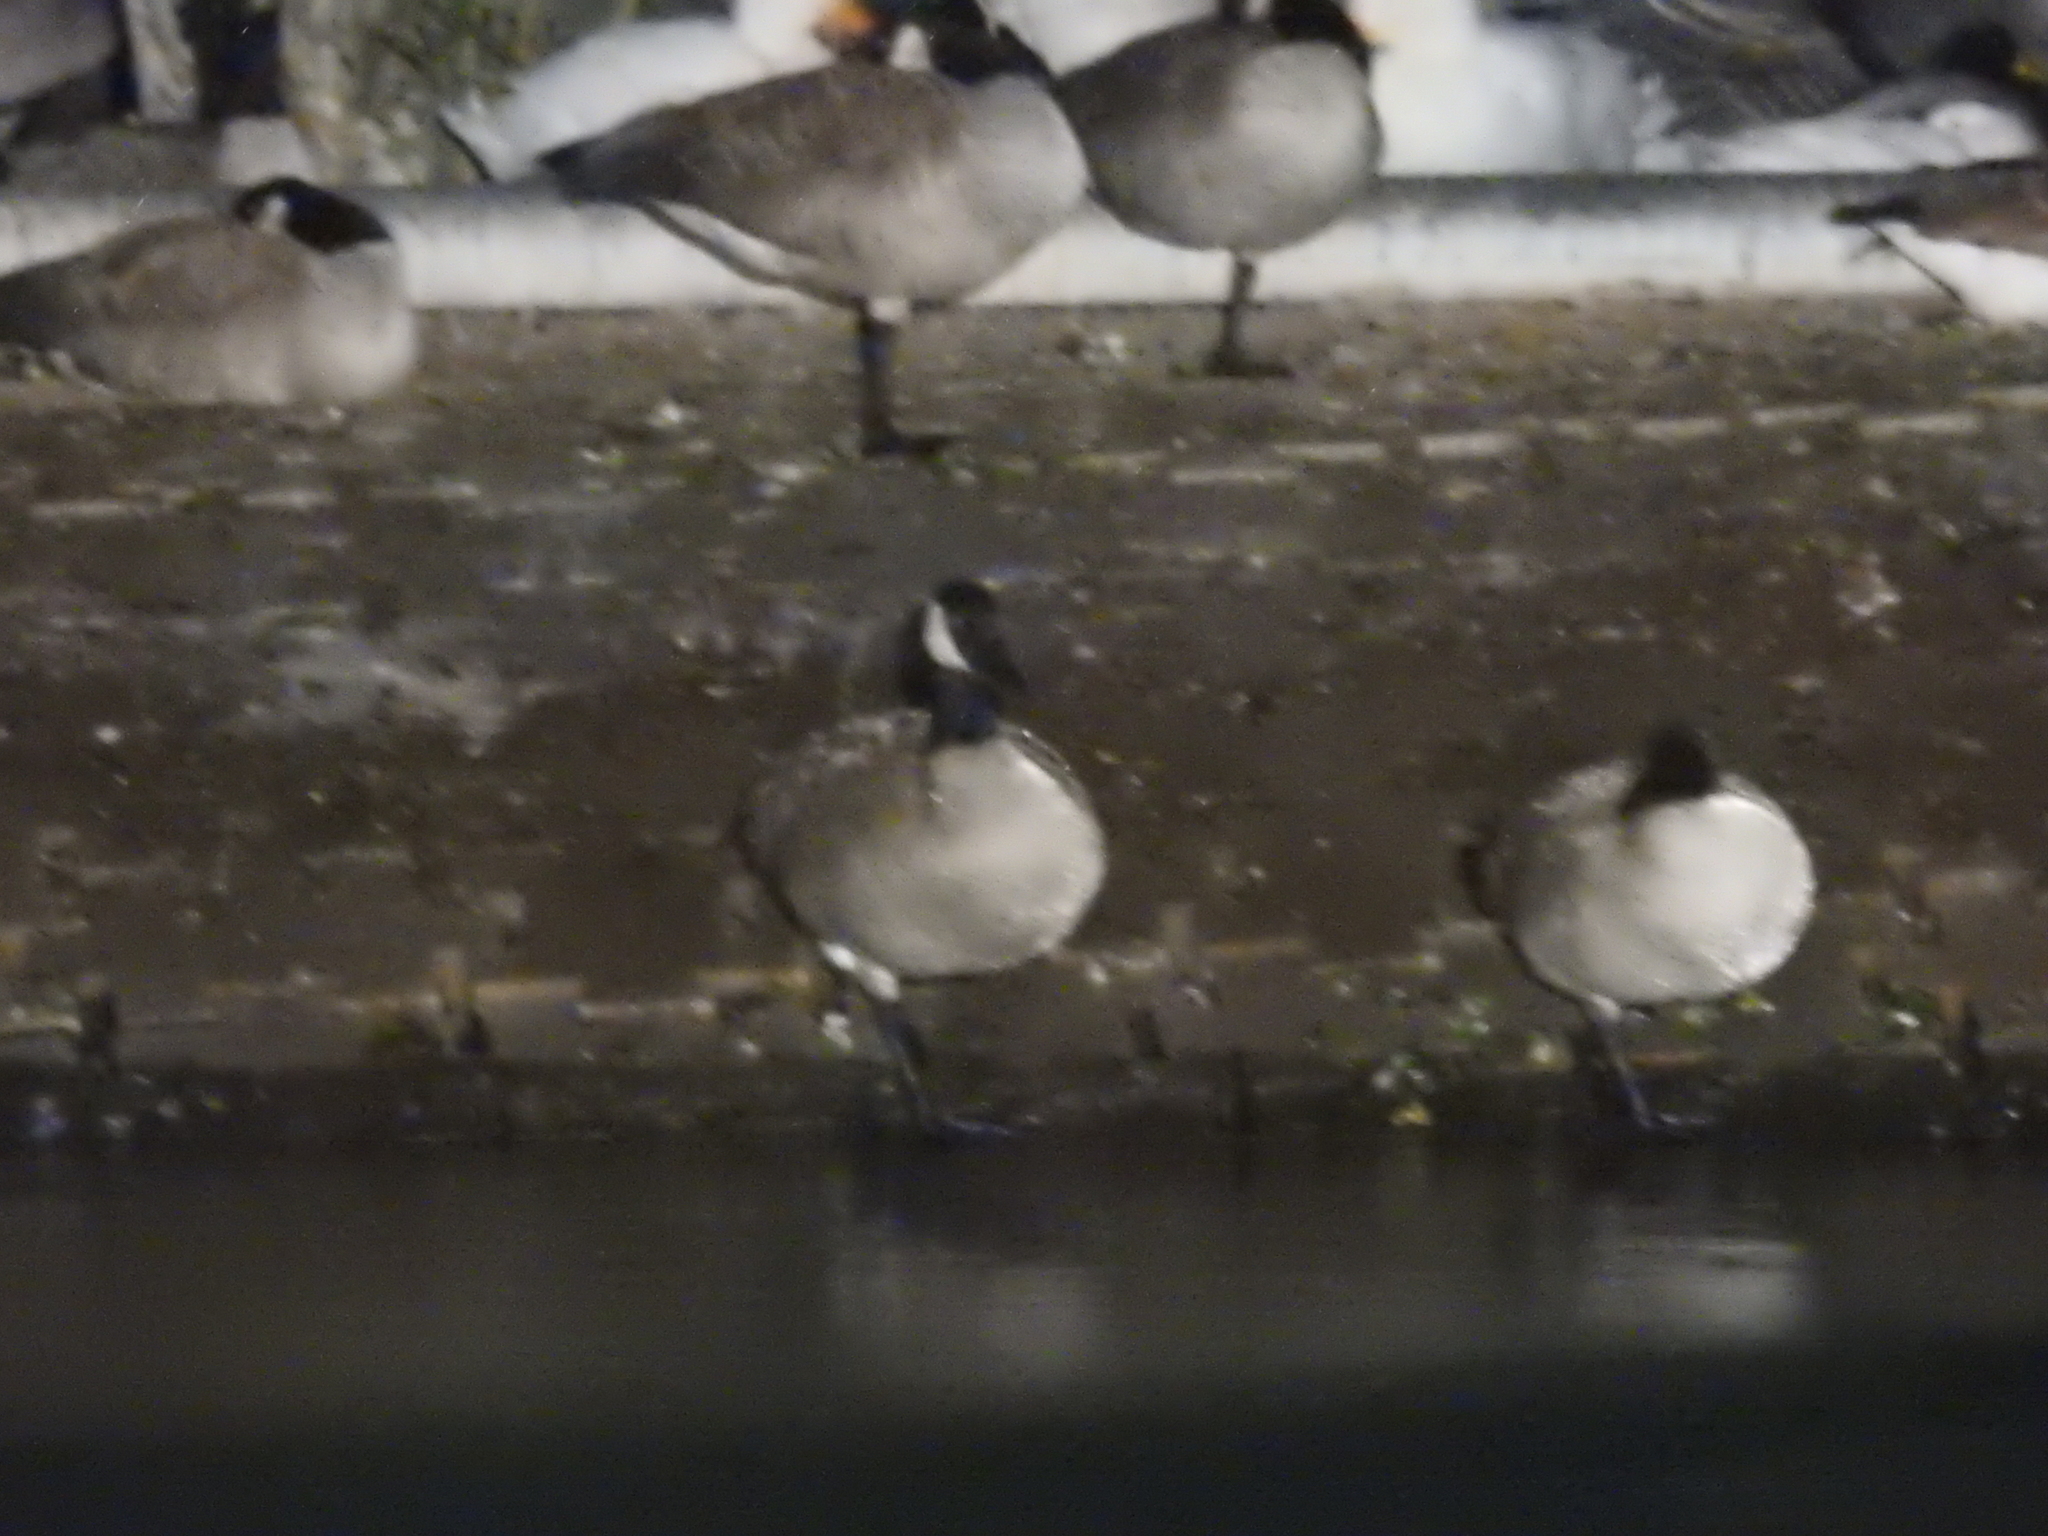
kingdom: Animalia
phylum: Chordata
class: Aves
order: Anseriformes
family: Anatidae
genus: Branta
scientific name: Branta canadensis
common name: Canada goose
